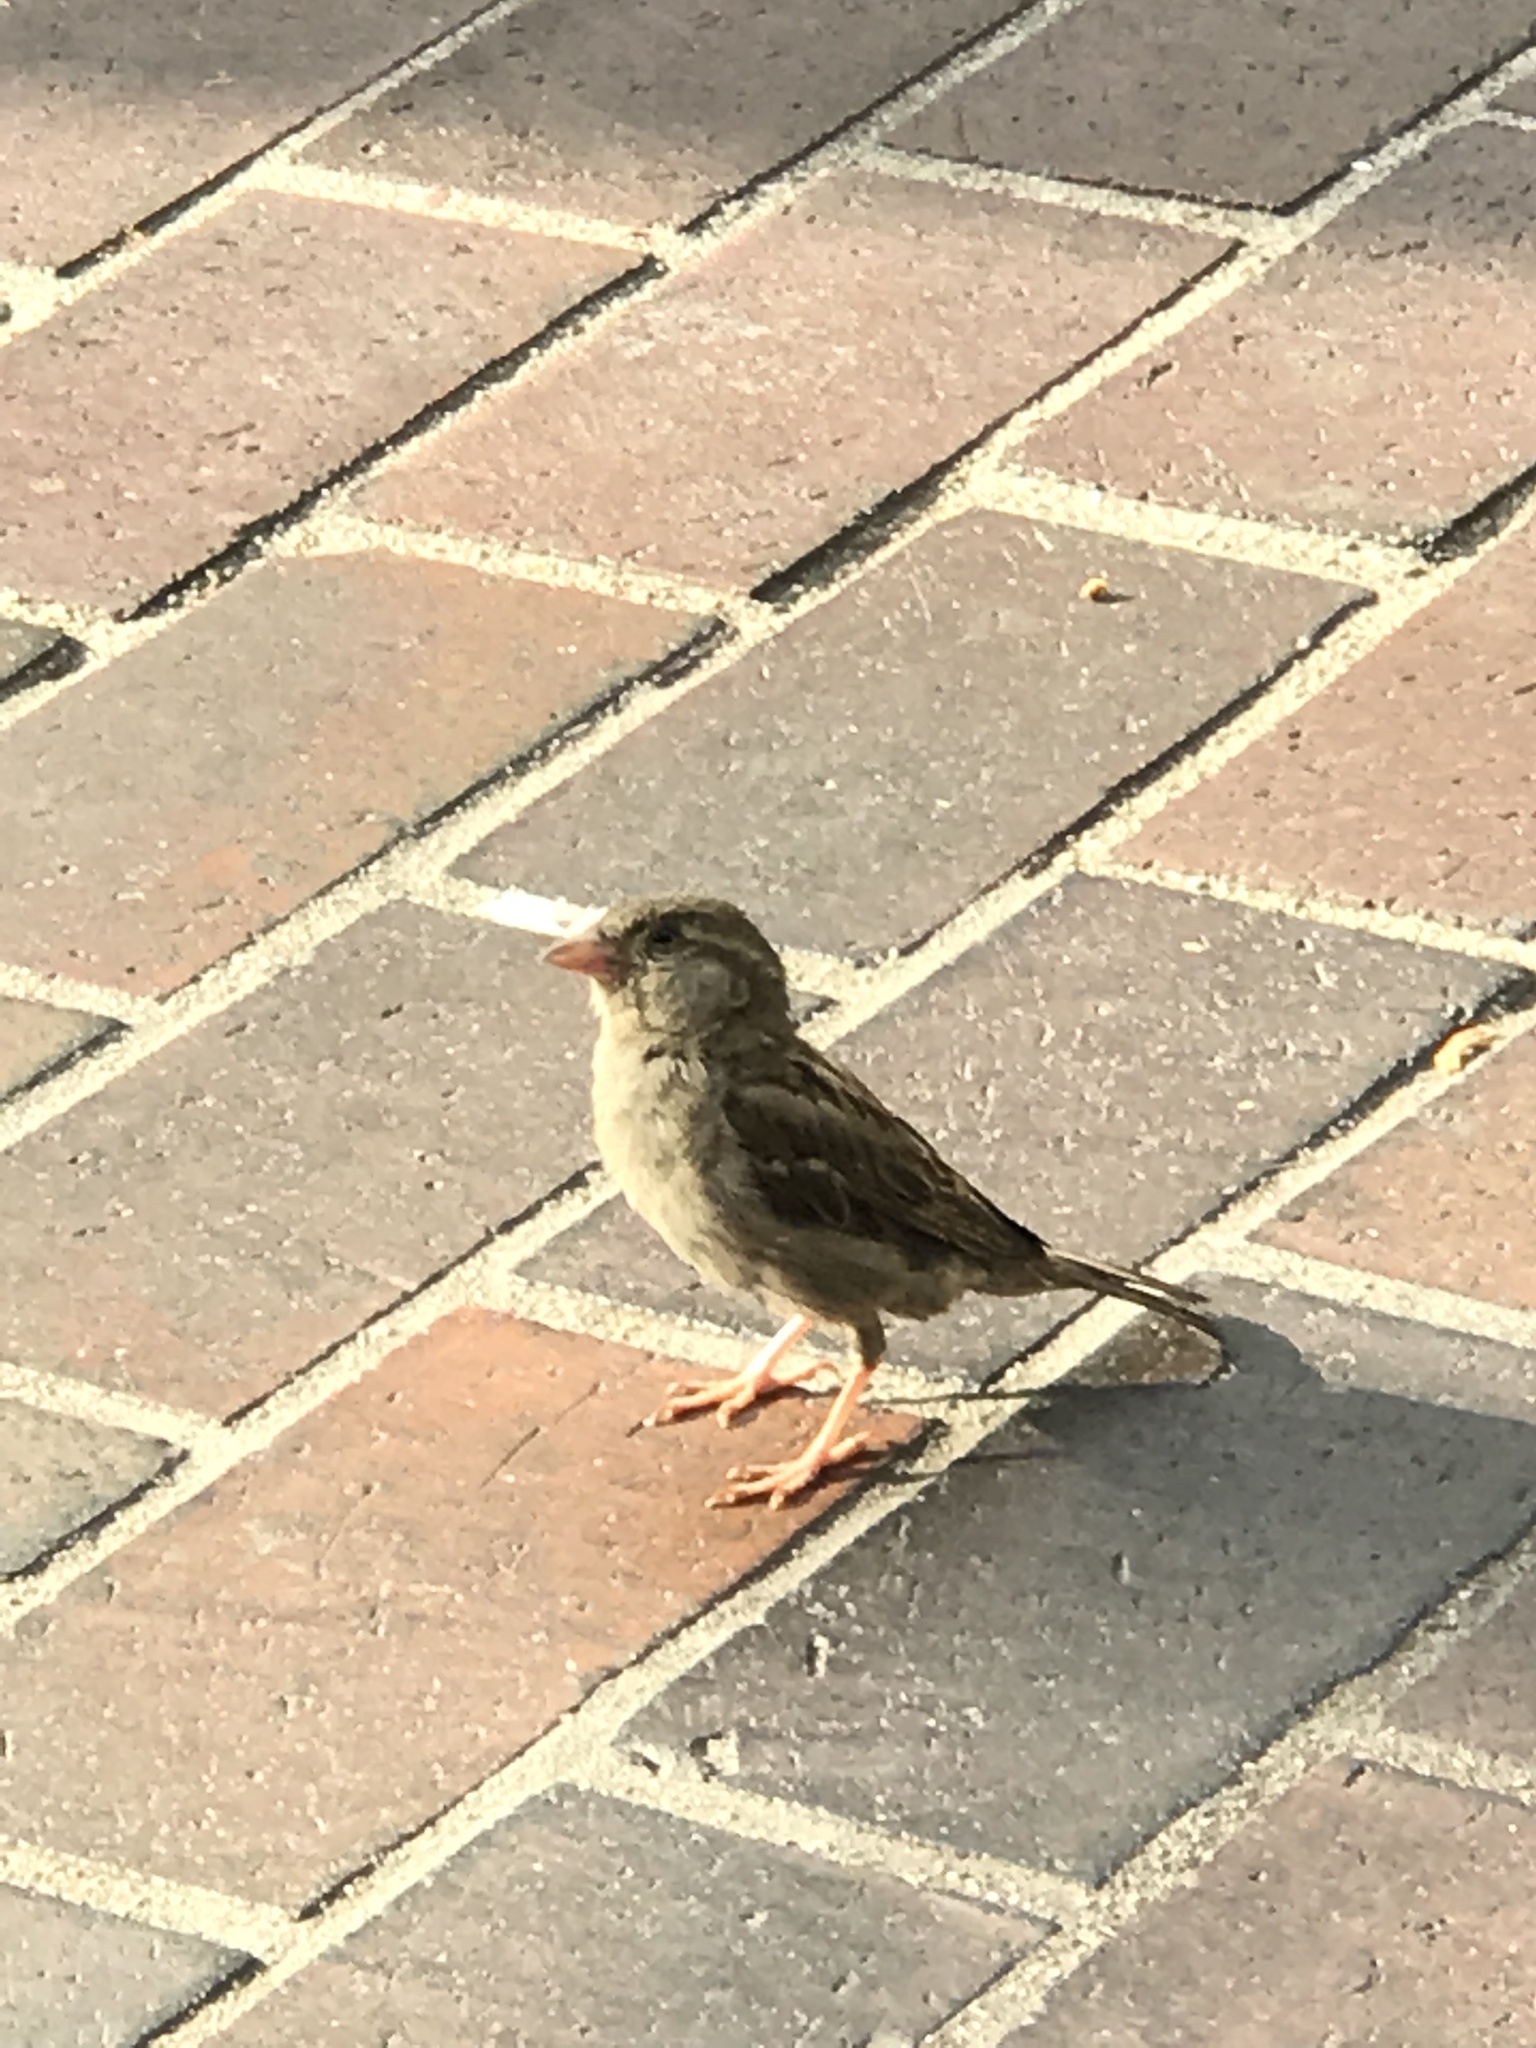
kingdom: Animalia
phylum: Chordata
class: Aves
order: Passeriformes
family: Passeridae
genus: Passer
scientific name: Passer domesticus
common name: House sparrow
